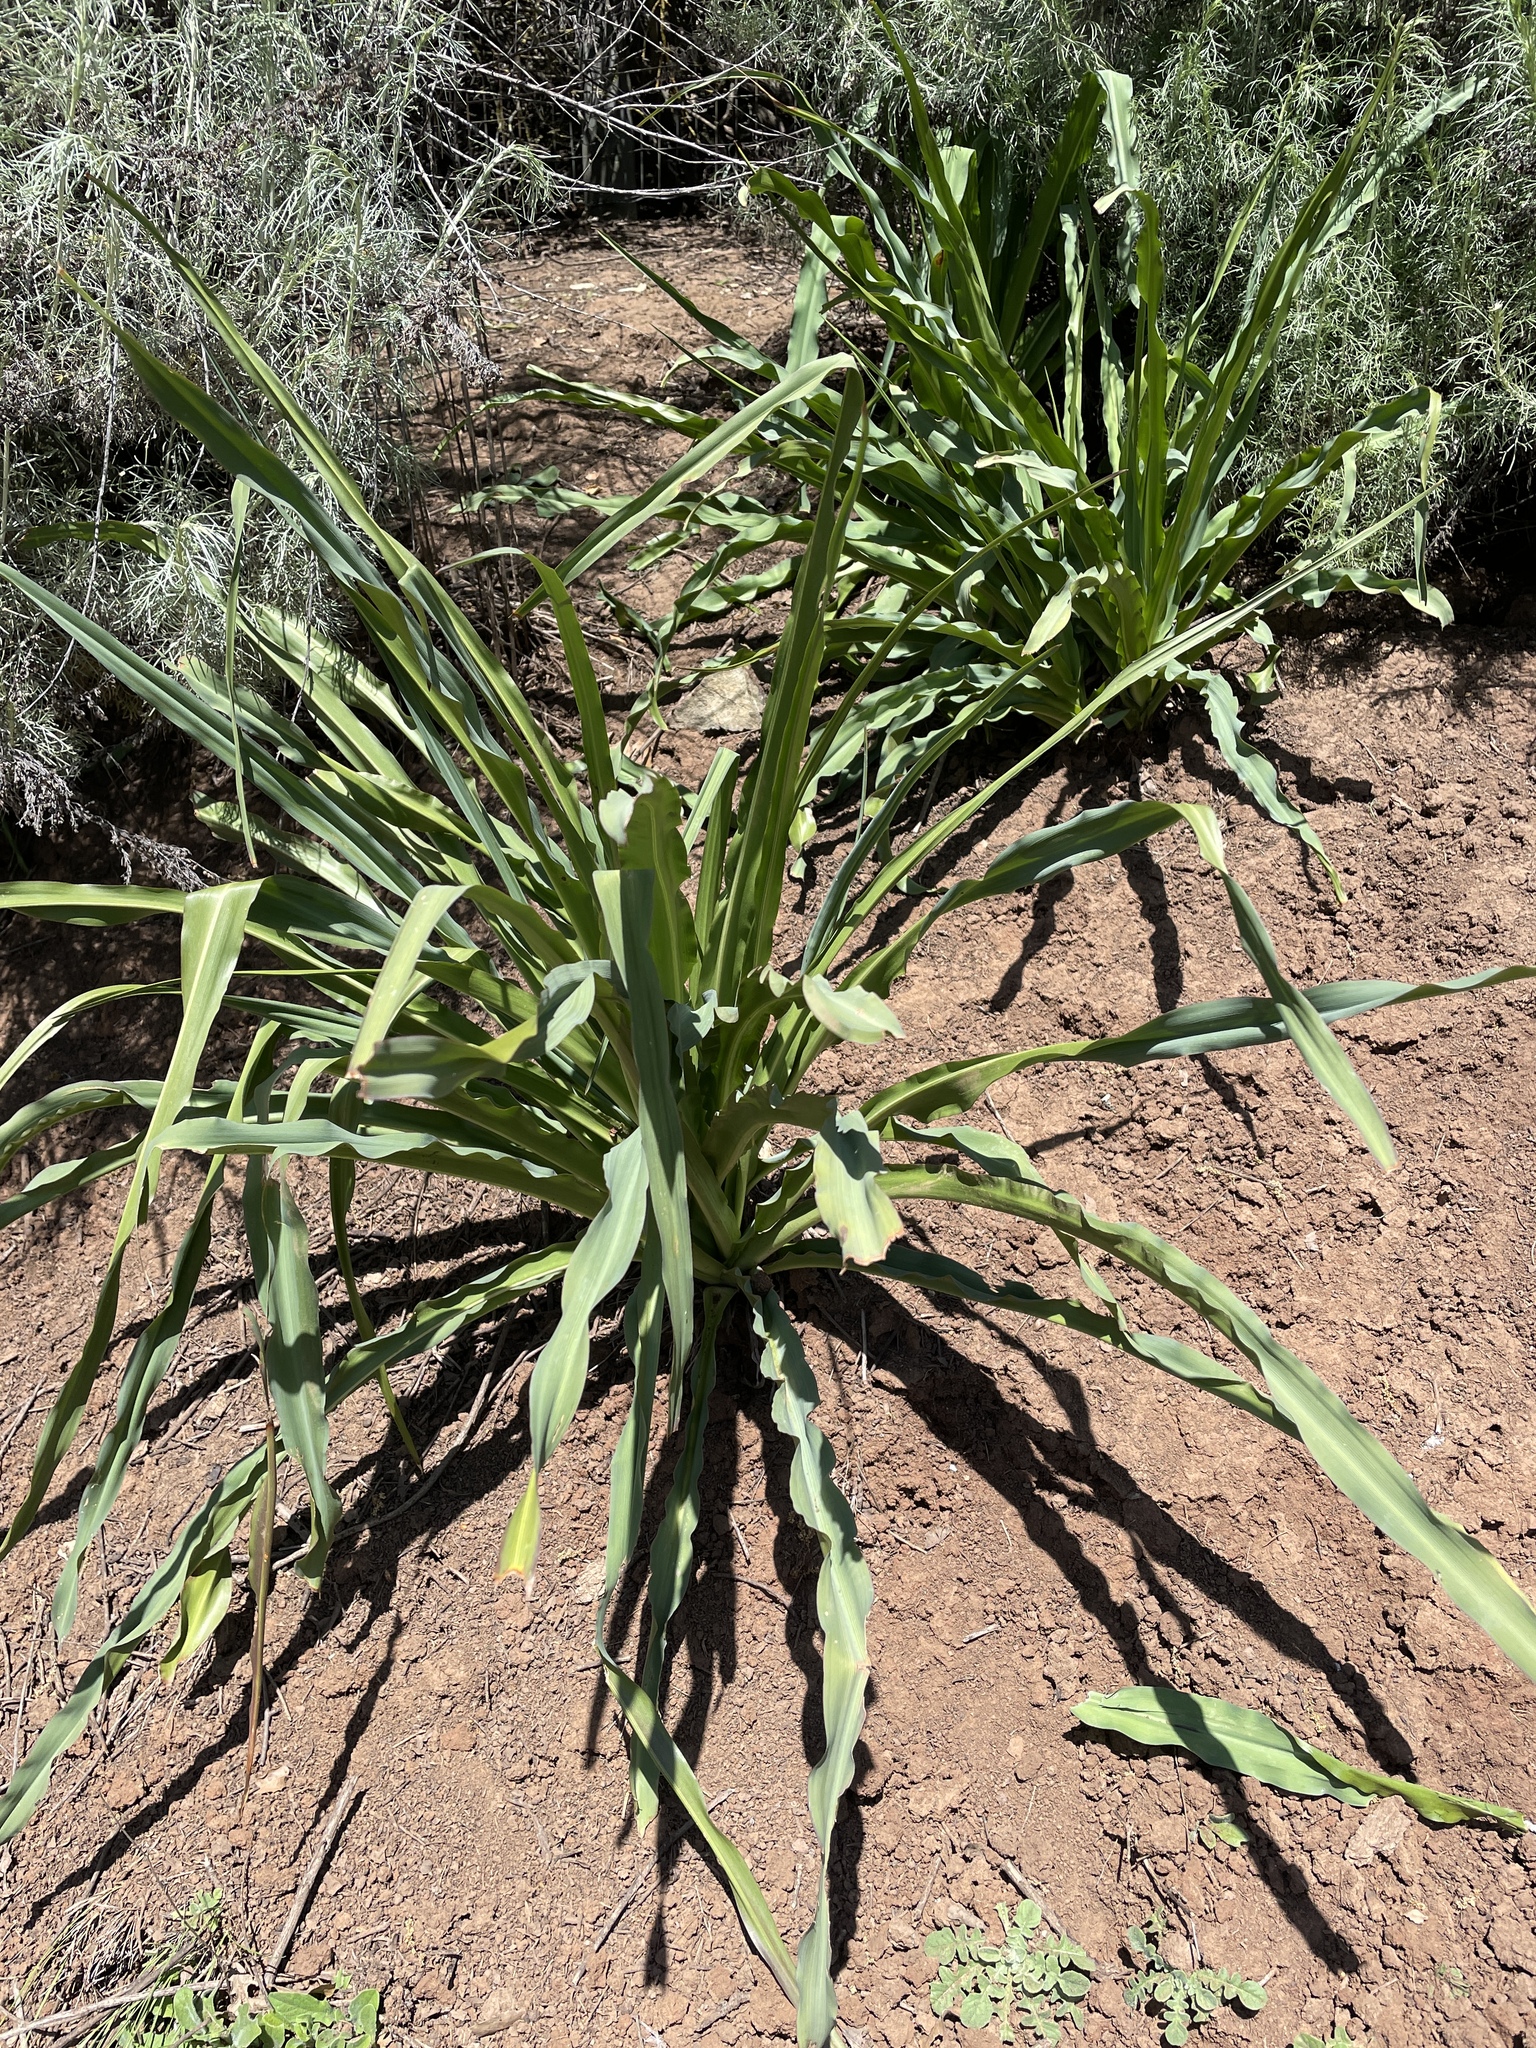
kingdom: Plantae
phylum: Tracheophyta
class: Liliopsida
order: Asparagales
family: Asparagaceae
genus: Chlorogalum
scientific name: Chlorogalum pomeridianum
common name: Amole
